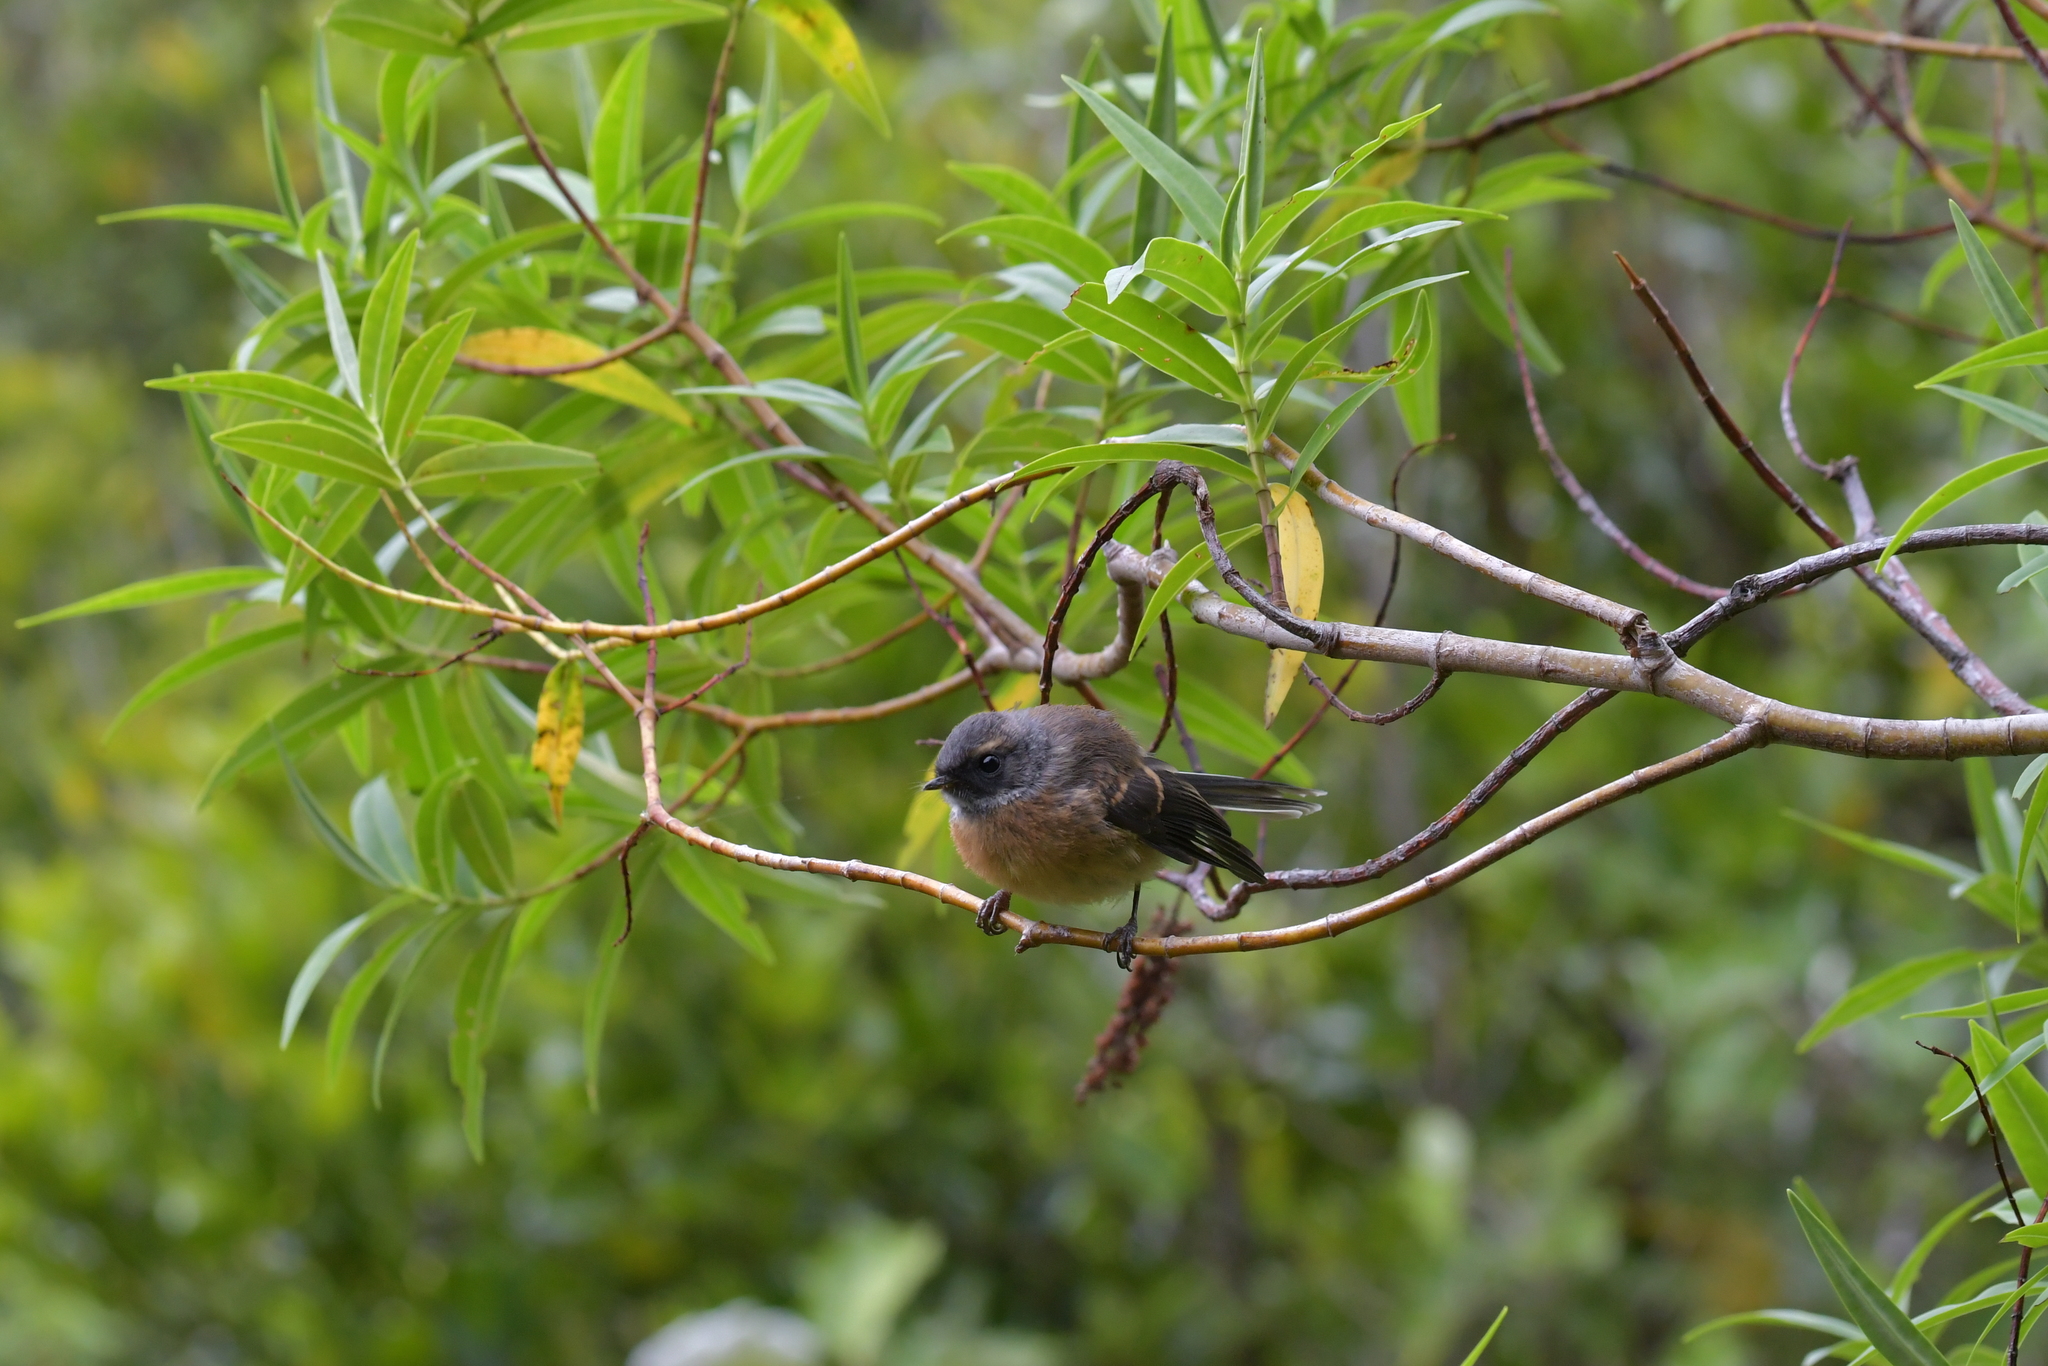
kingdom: Animalia
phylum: Chordata
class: Aves
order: Passeriformes
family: Rhipiduridae
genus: Rhipidura
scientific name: Rhipidura fuliginosa
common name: New zealand fantail
